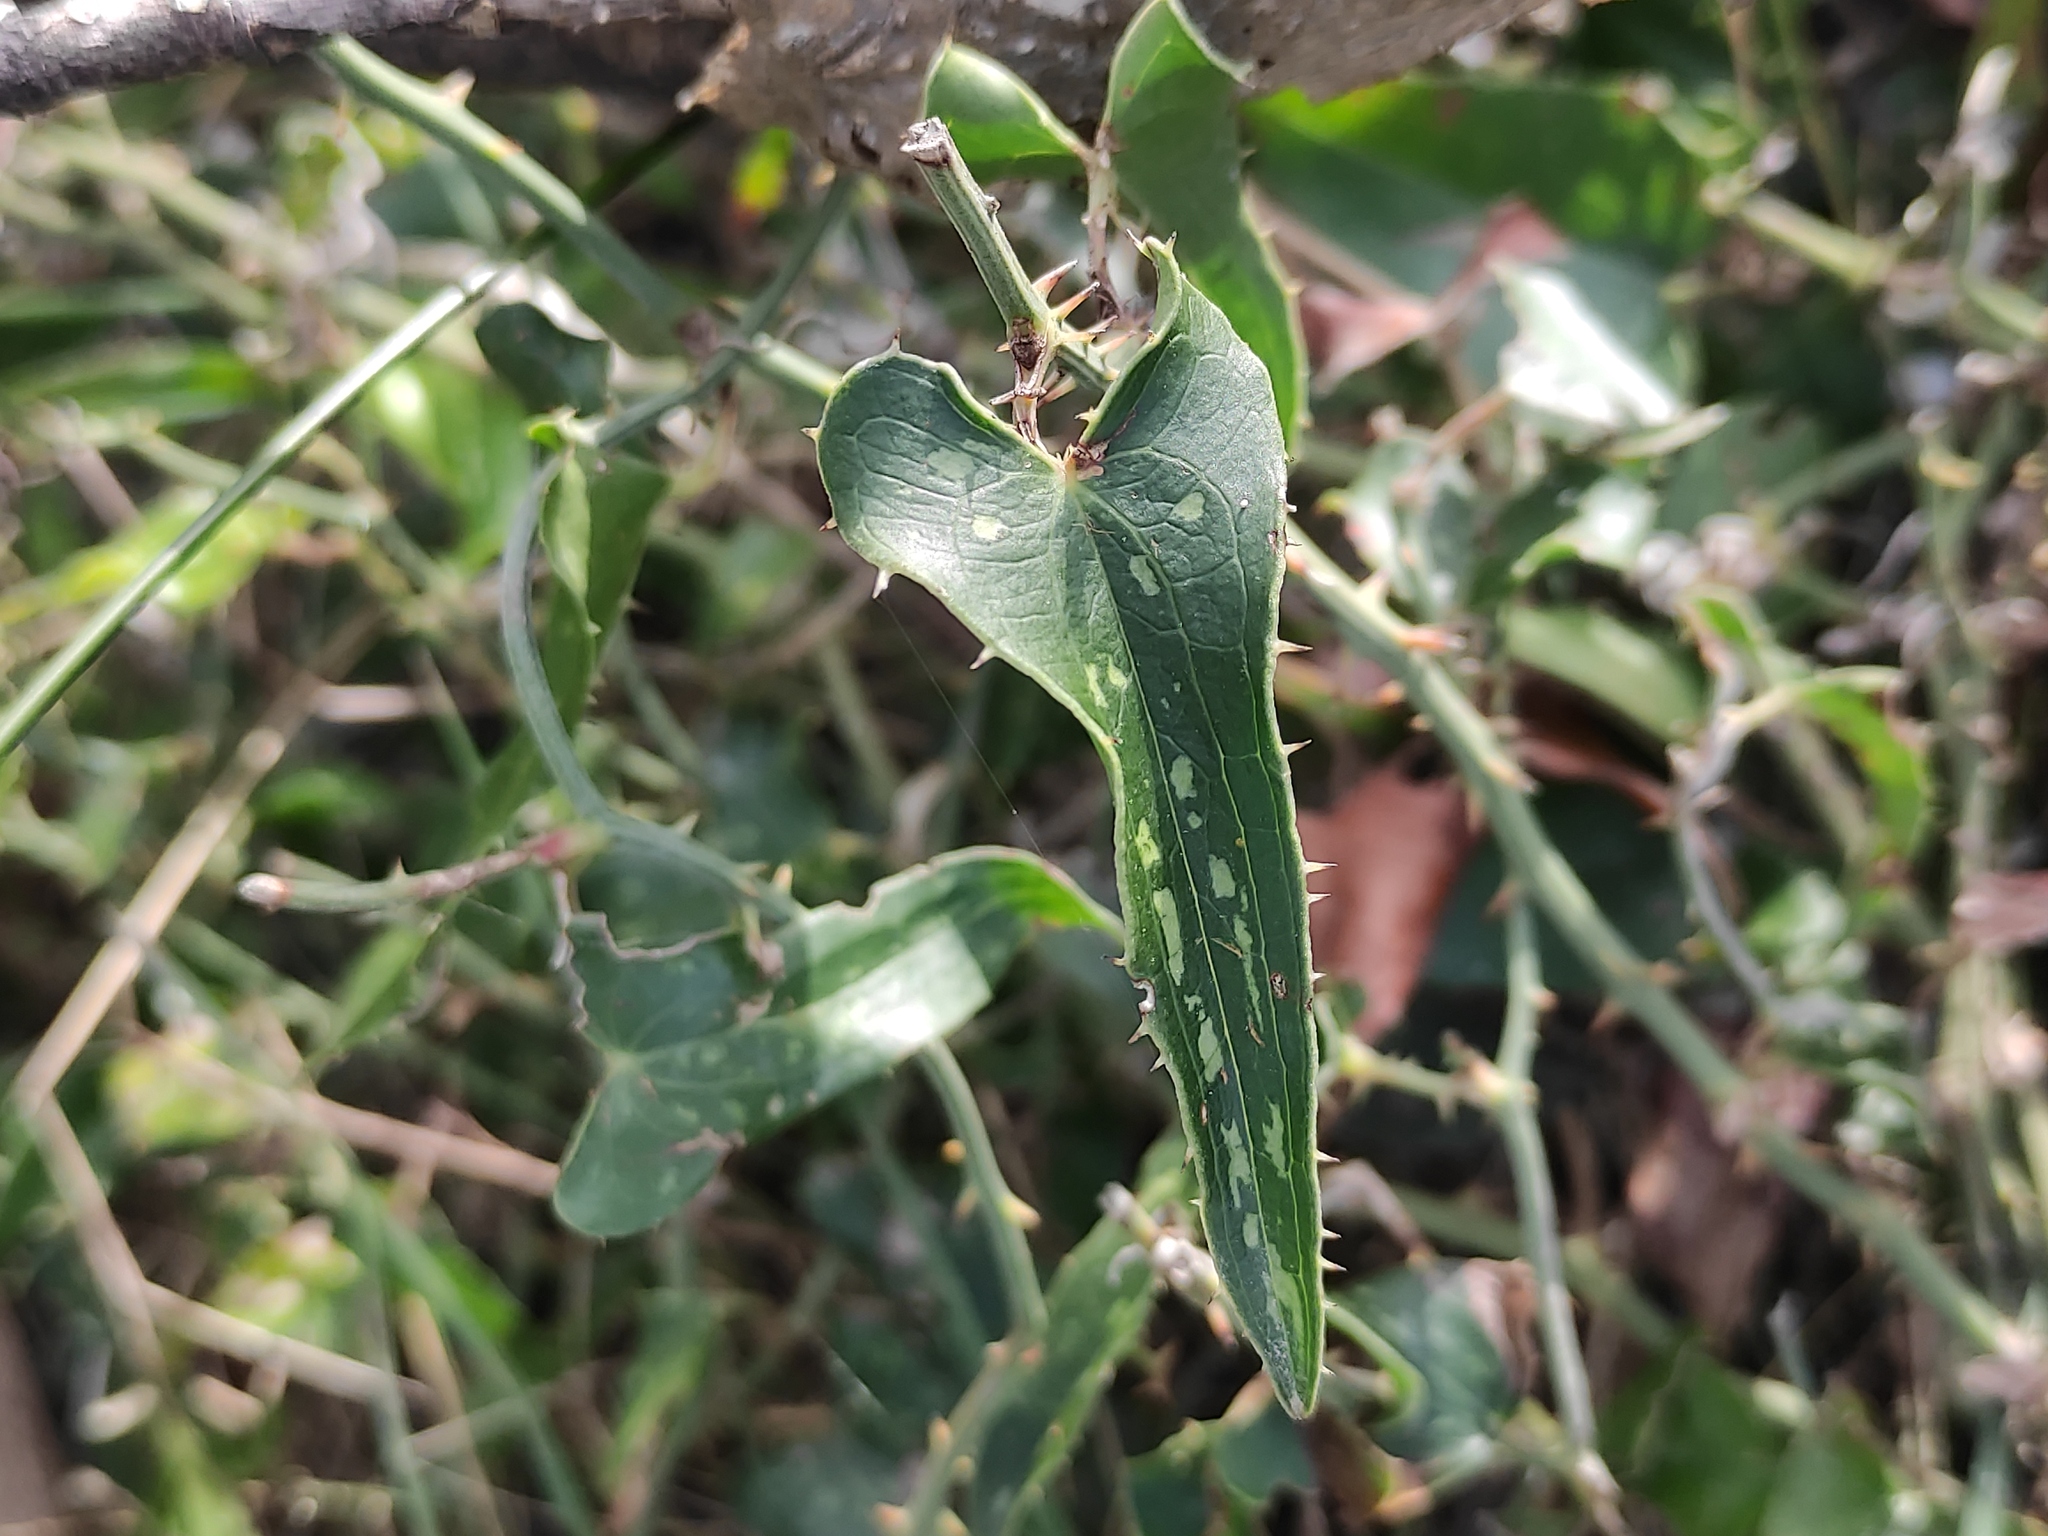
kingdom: Plantae
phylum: Tracheophyta
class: Liliopsida
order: Liliales
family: Smilacaceae
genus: Smilax
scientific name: Smilax aspera
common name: Common smilax
